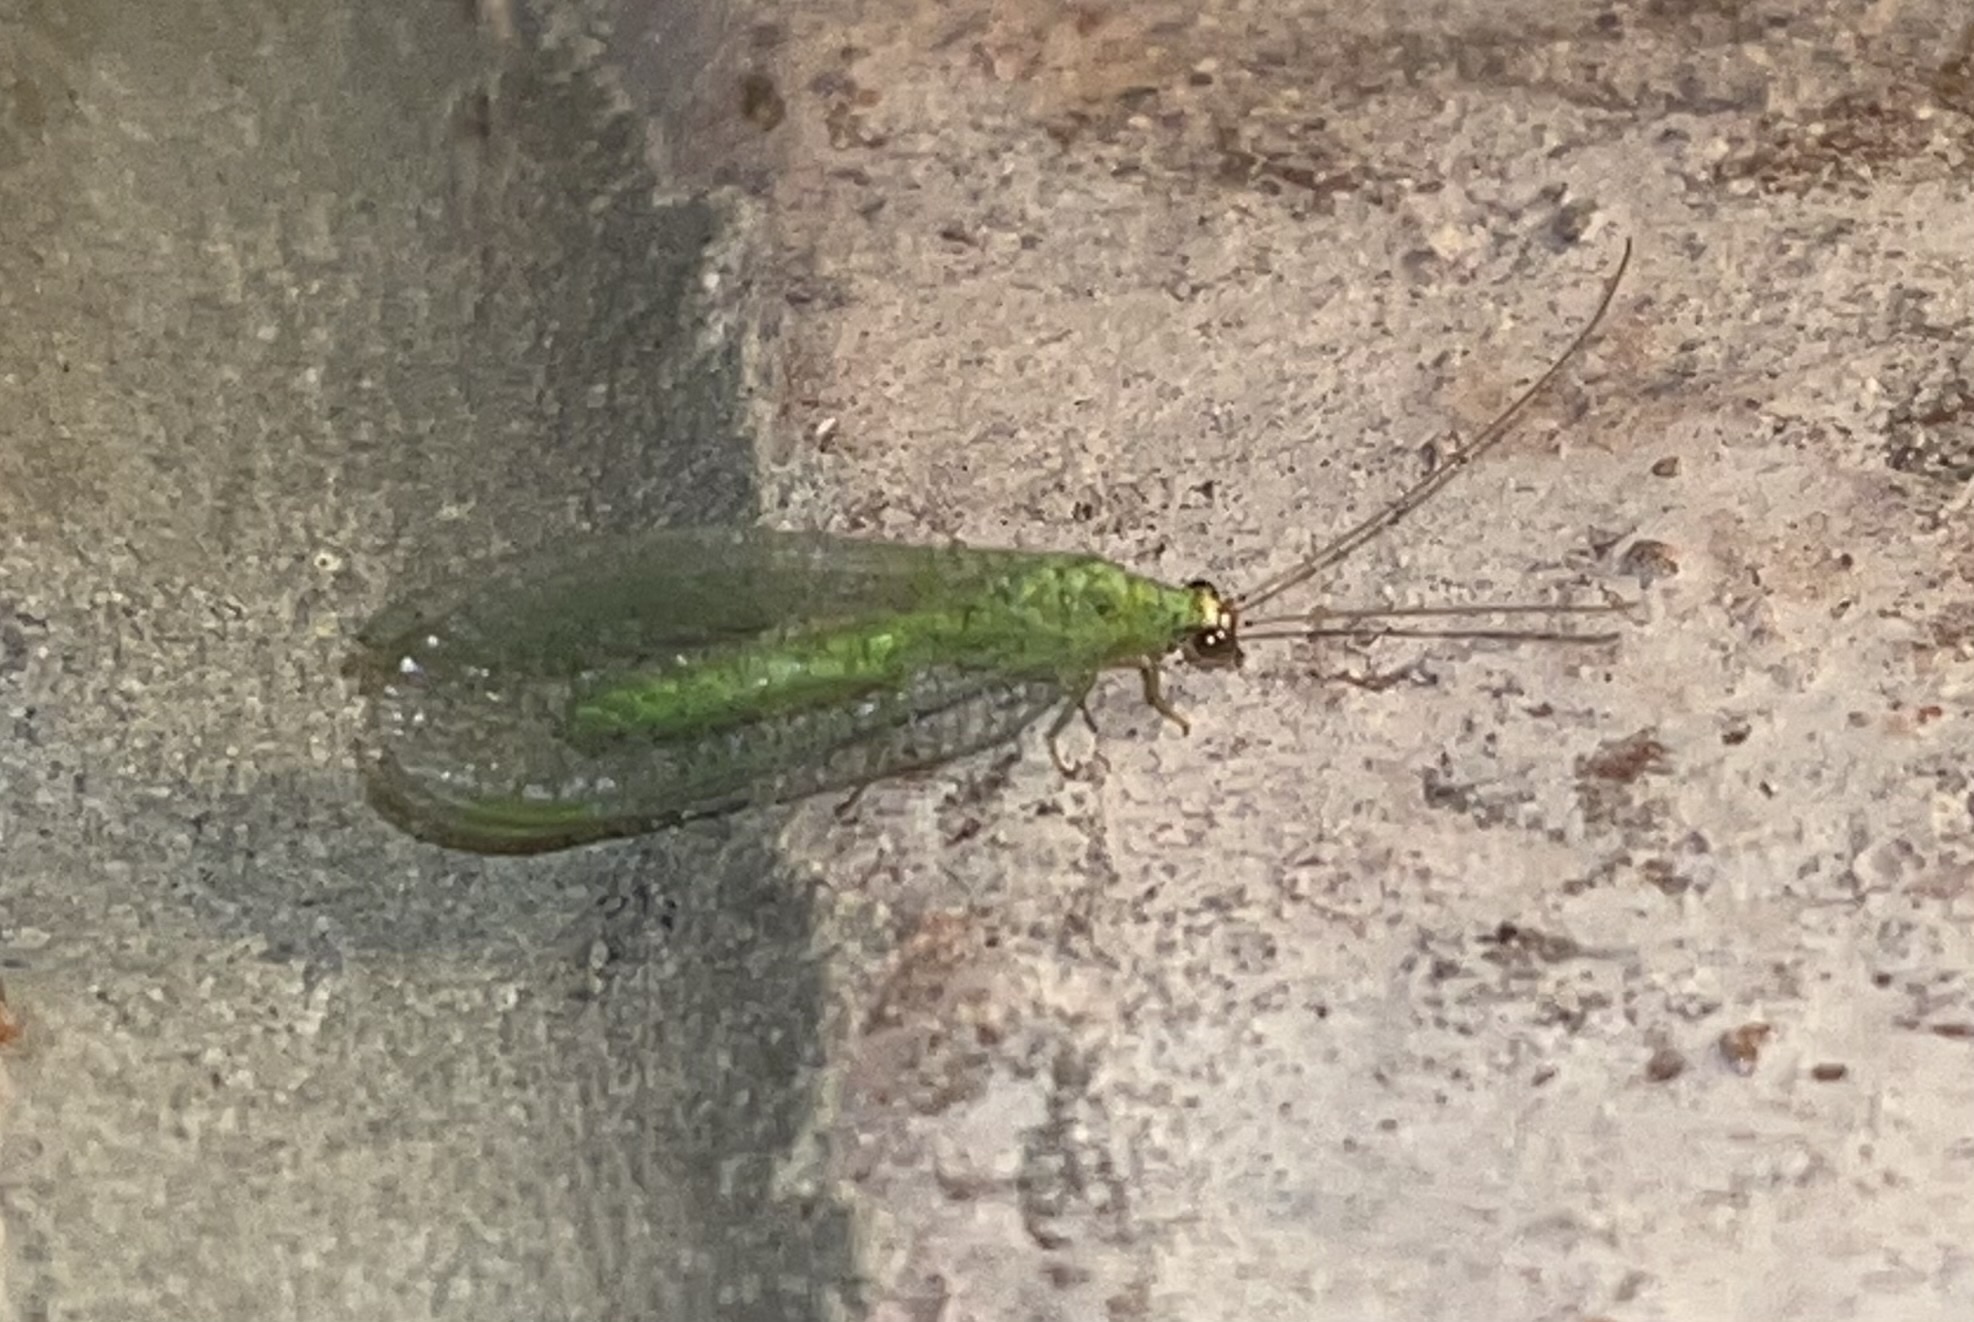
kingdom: Animalia
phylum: Arthropoda
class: Insecta
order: Neuroptera
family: Chrysopidae
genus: Chrysopa
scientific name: Chrysopa oculata
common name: Golden-eyed lacewing
